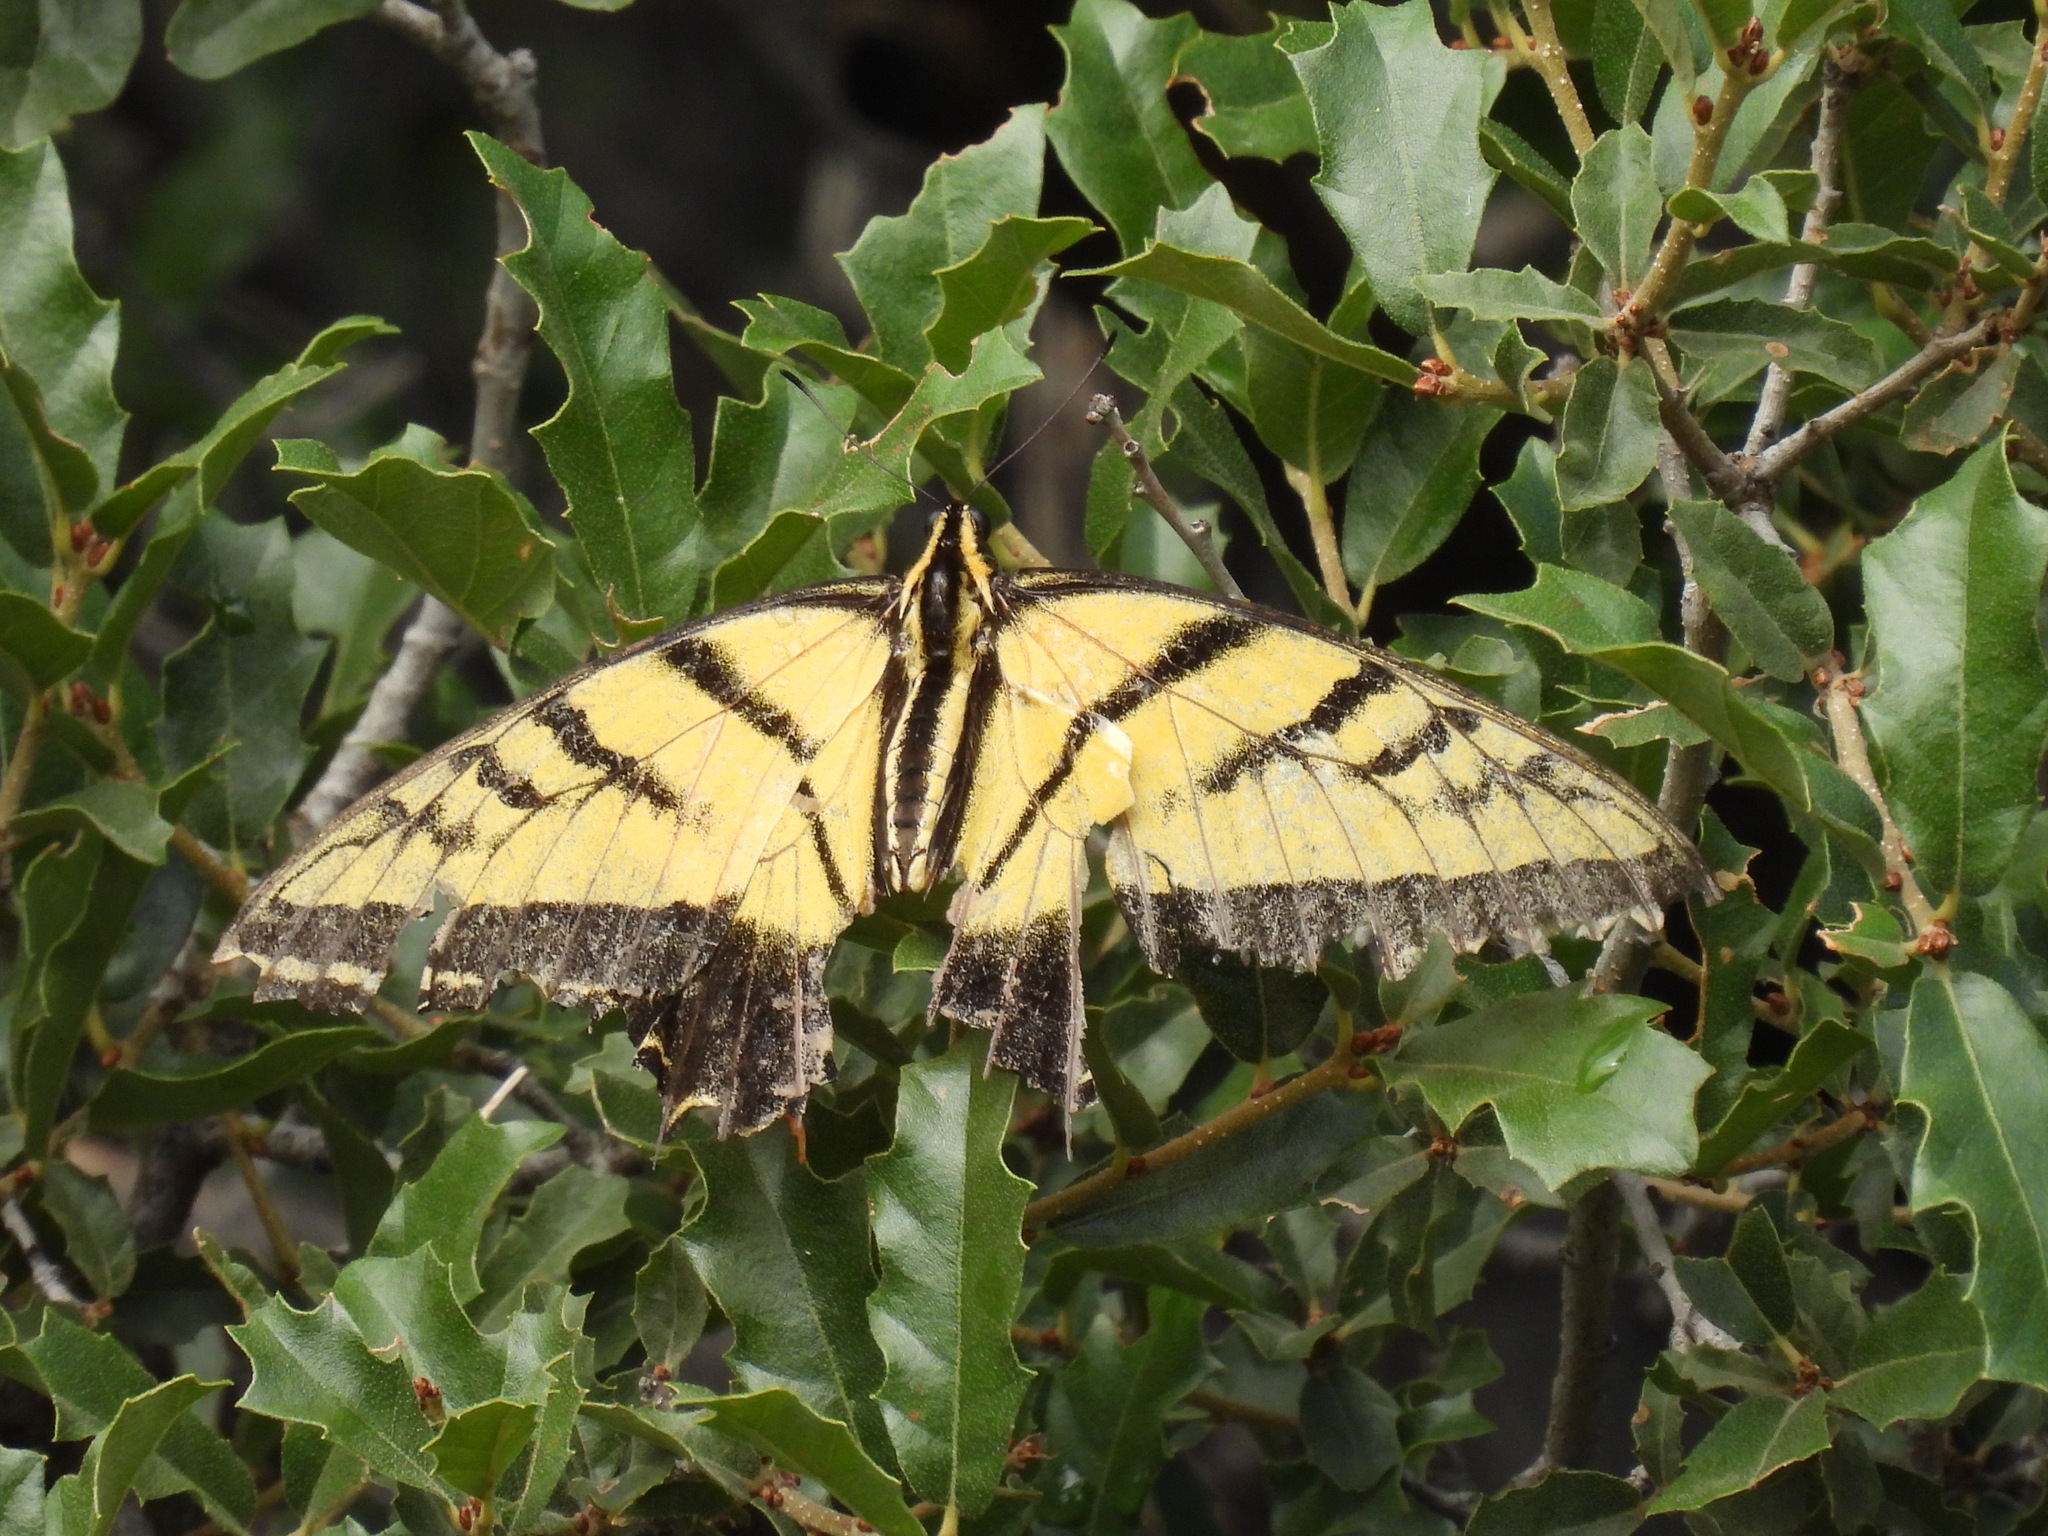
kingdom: Animalia
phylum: Arthropoda
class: Insecta
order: Lepidoptera
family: Papilionidae
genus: Papilio
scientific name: Papilio multicaudata
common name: Two-tailed tiger swallowtail
